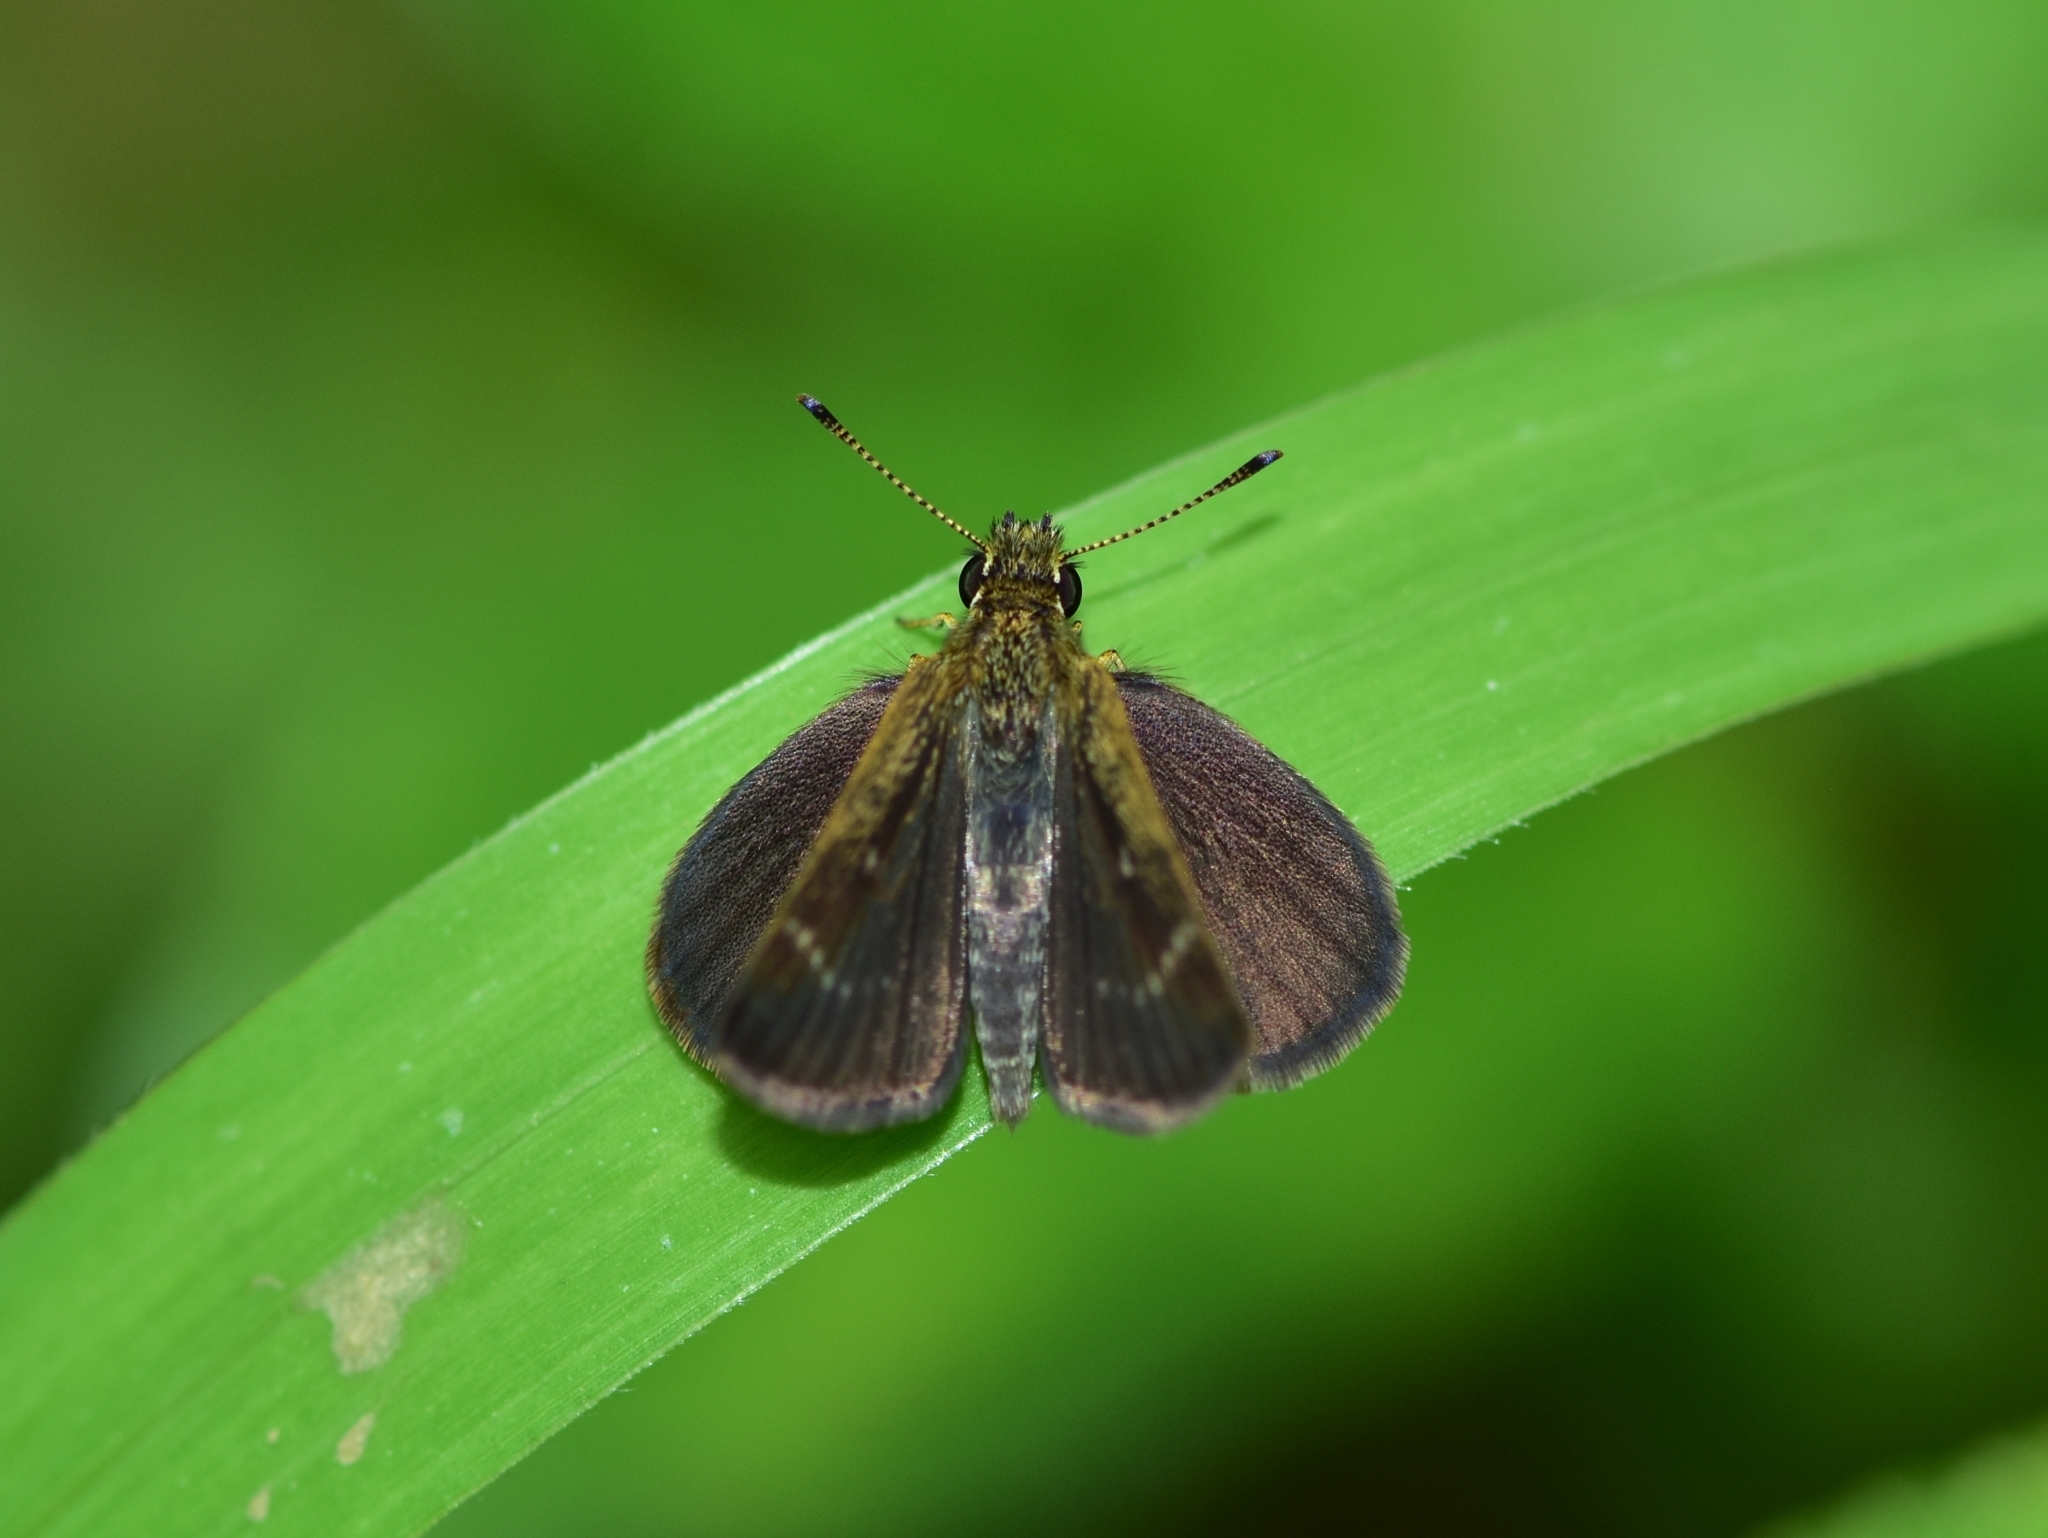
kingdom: Animalia
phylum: Arthropoda
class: Insecta
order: Lepidoptera
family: Hesperiidae
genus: Aeromachus
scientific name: Aeromachus pygmaeus
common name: Pygmy scrub hopper
